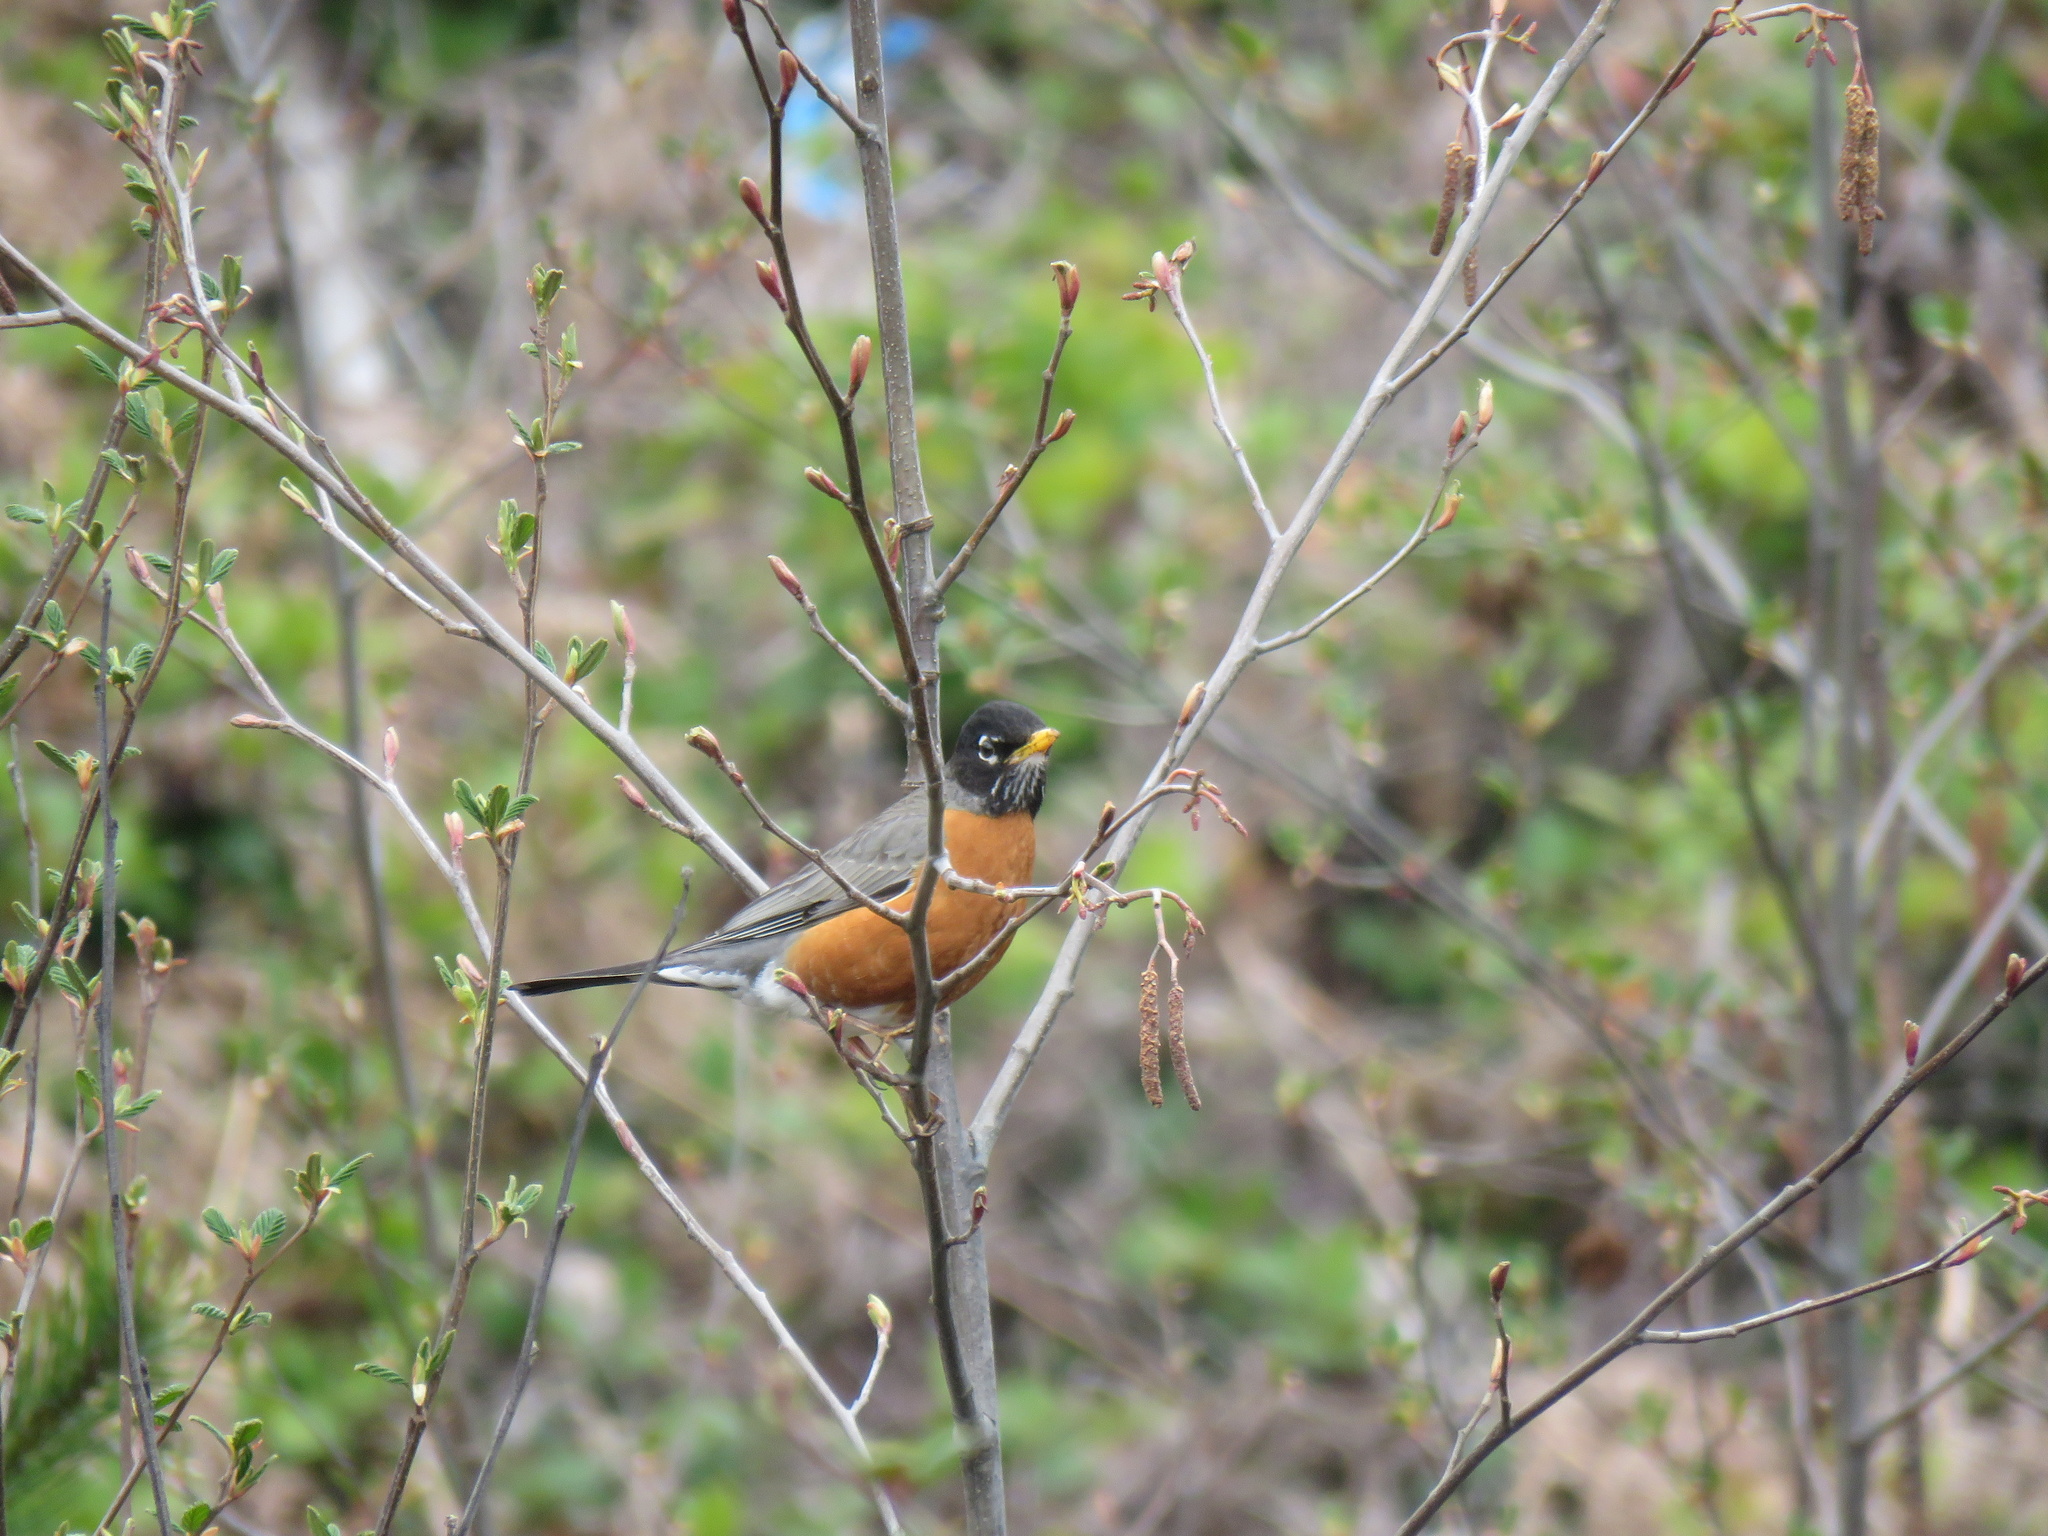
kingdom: Animalia
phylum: Chordata
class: Aves
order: Passeriformes
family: Turdidae
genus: Turdus
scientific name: Turdus migratorius
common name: American robin
